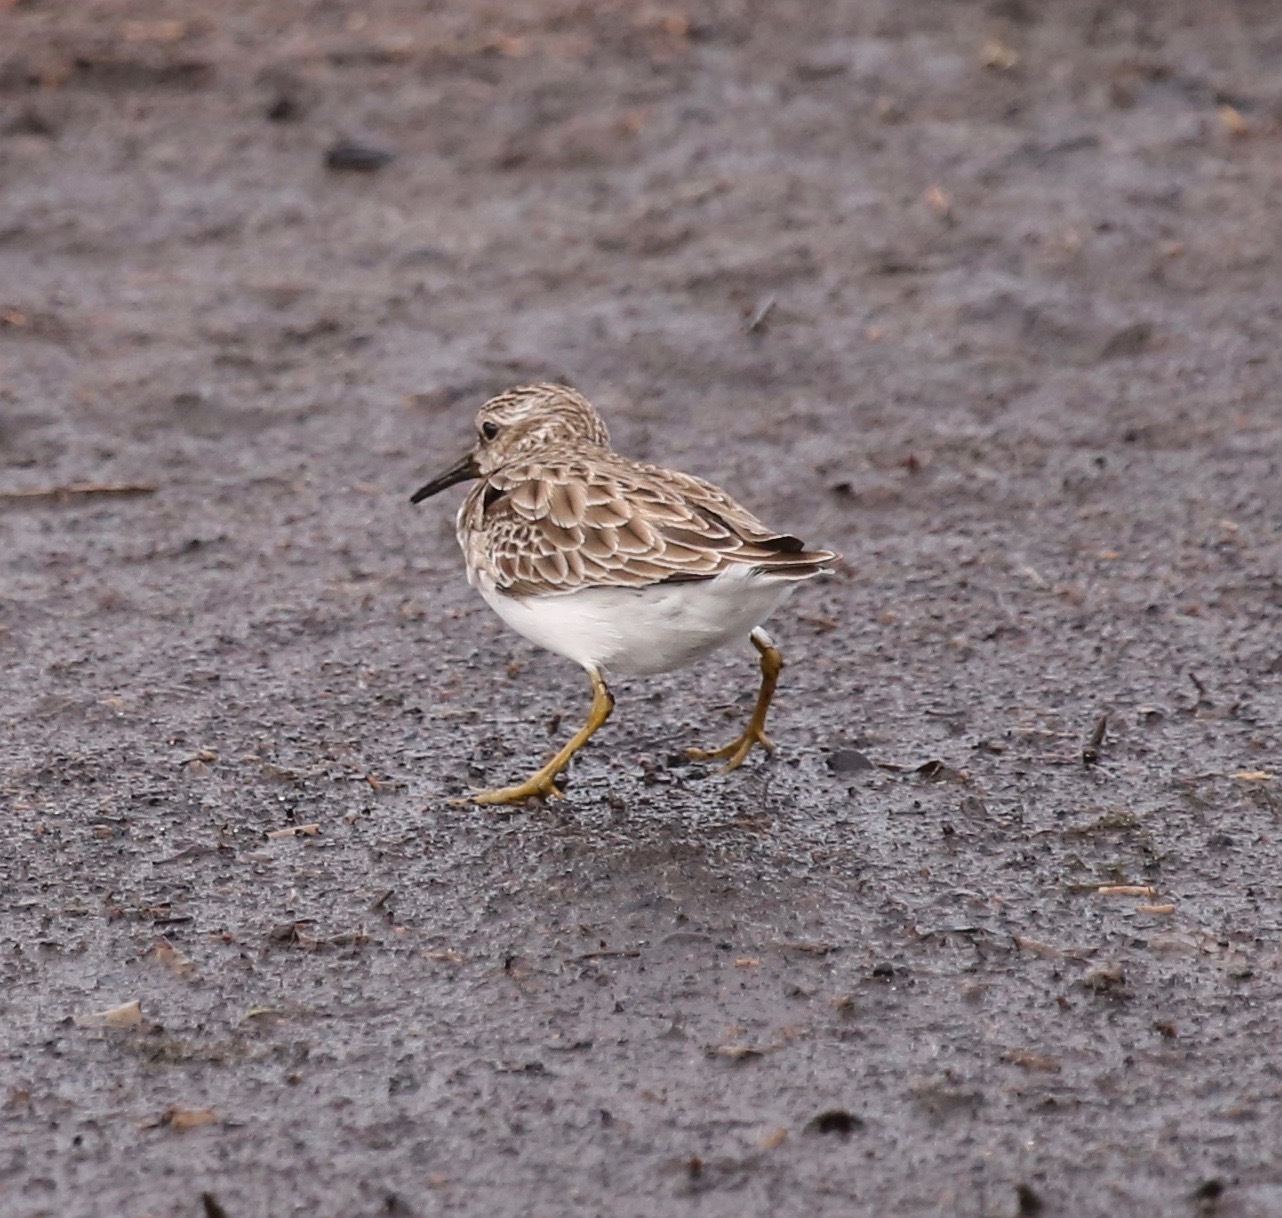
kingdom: Animalia
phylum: Chordata
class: Aves
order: Charadriiformes
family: Scolopacidae
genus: Calidris
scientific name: Calidris minutilla
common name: Least sandpiper
